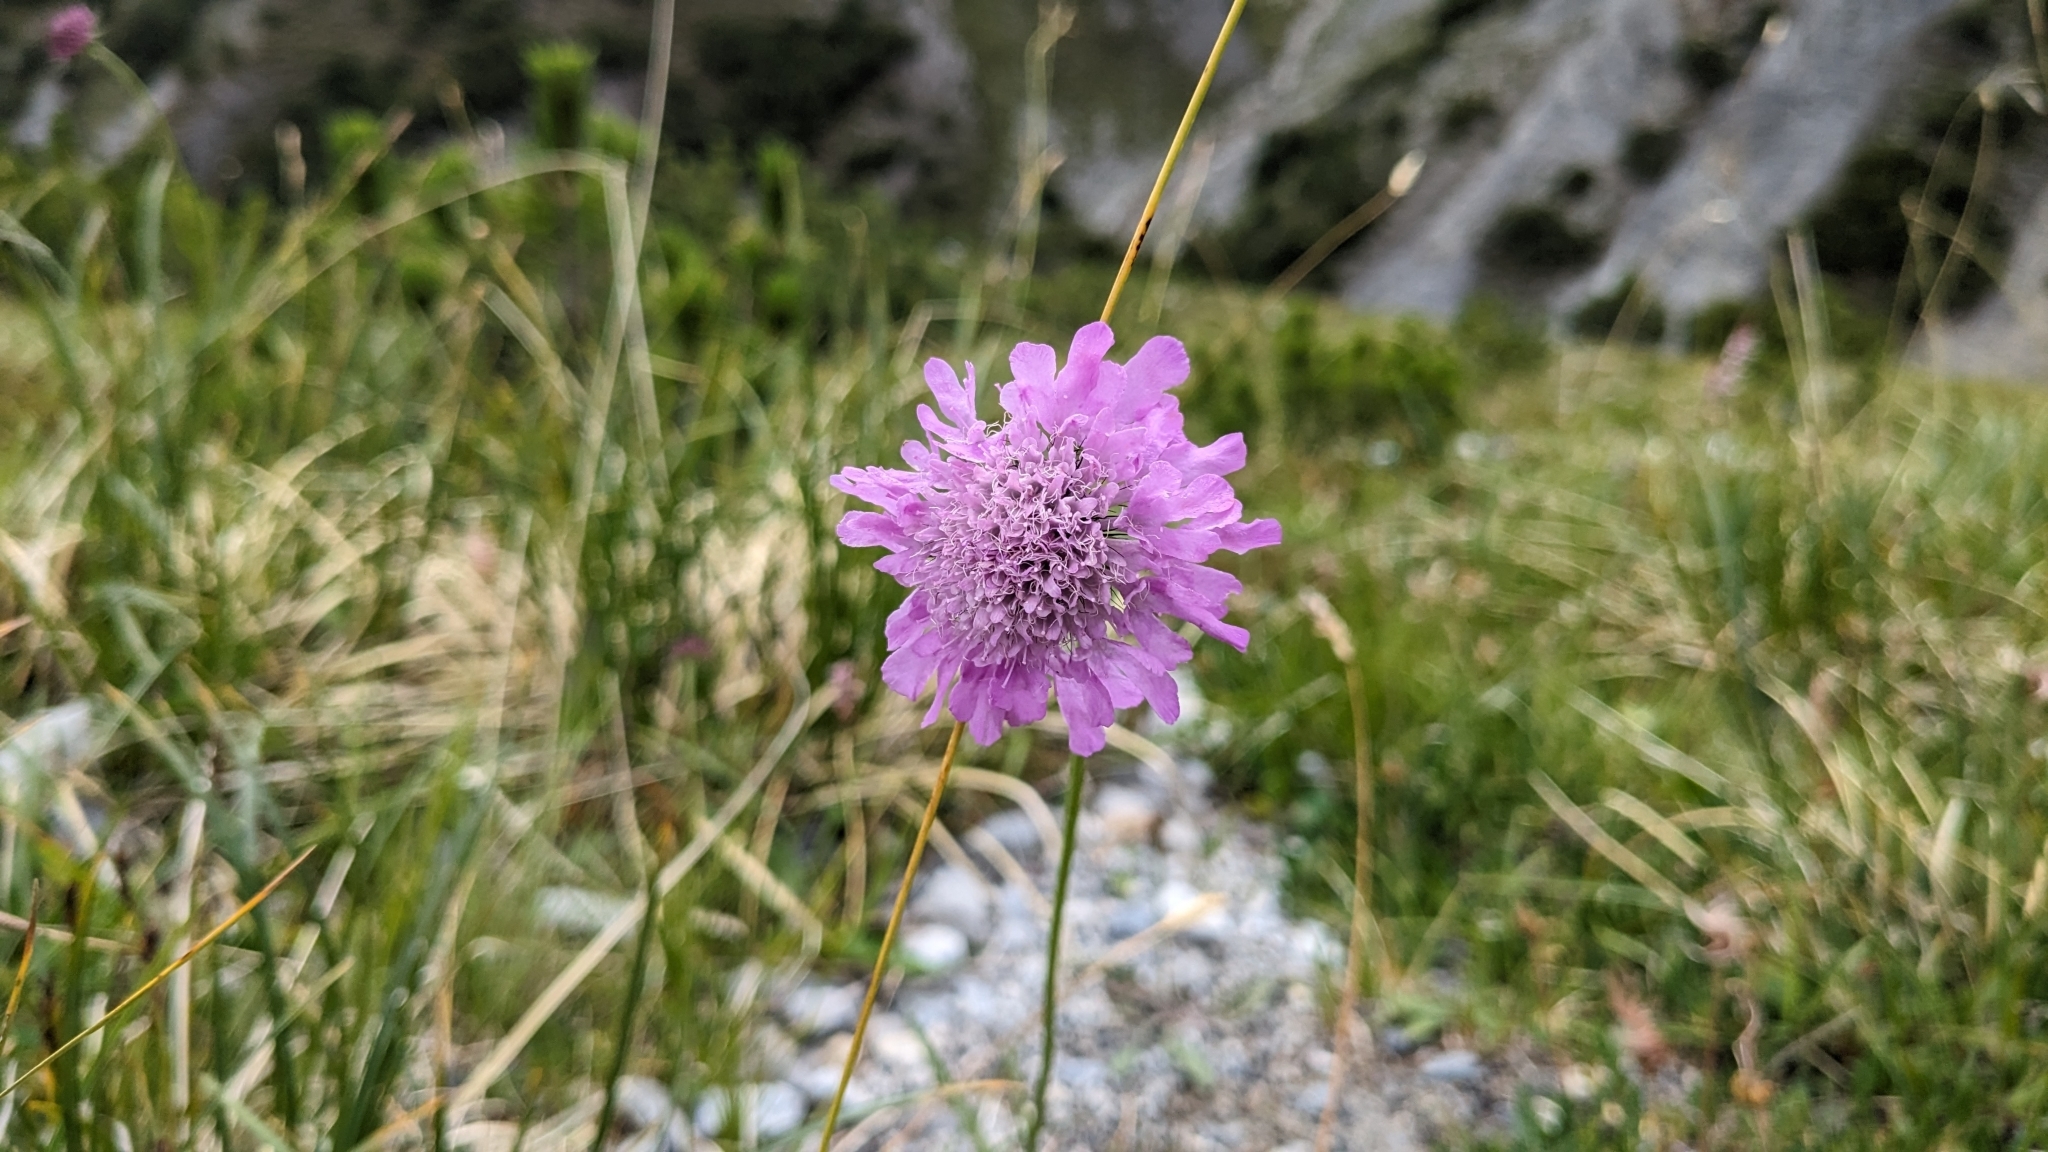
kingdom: Plantae
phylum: Tracheophyta
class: Magnoliopsida
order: Dipsacales
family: Caprifoliaceae
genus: Scabiosa
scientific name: Scabiosa lucida
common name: Shining scabious
